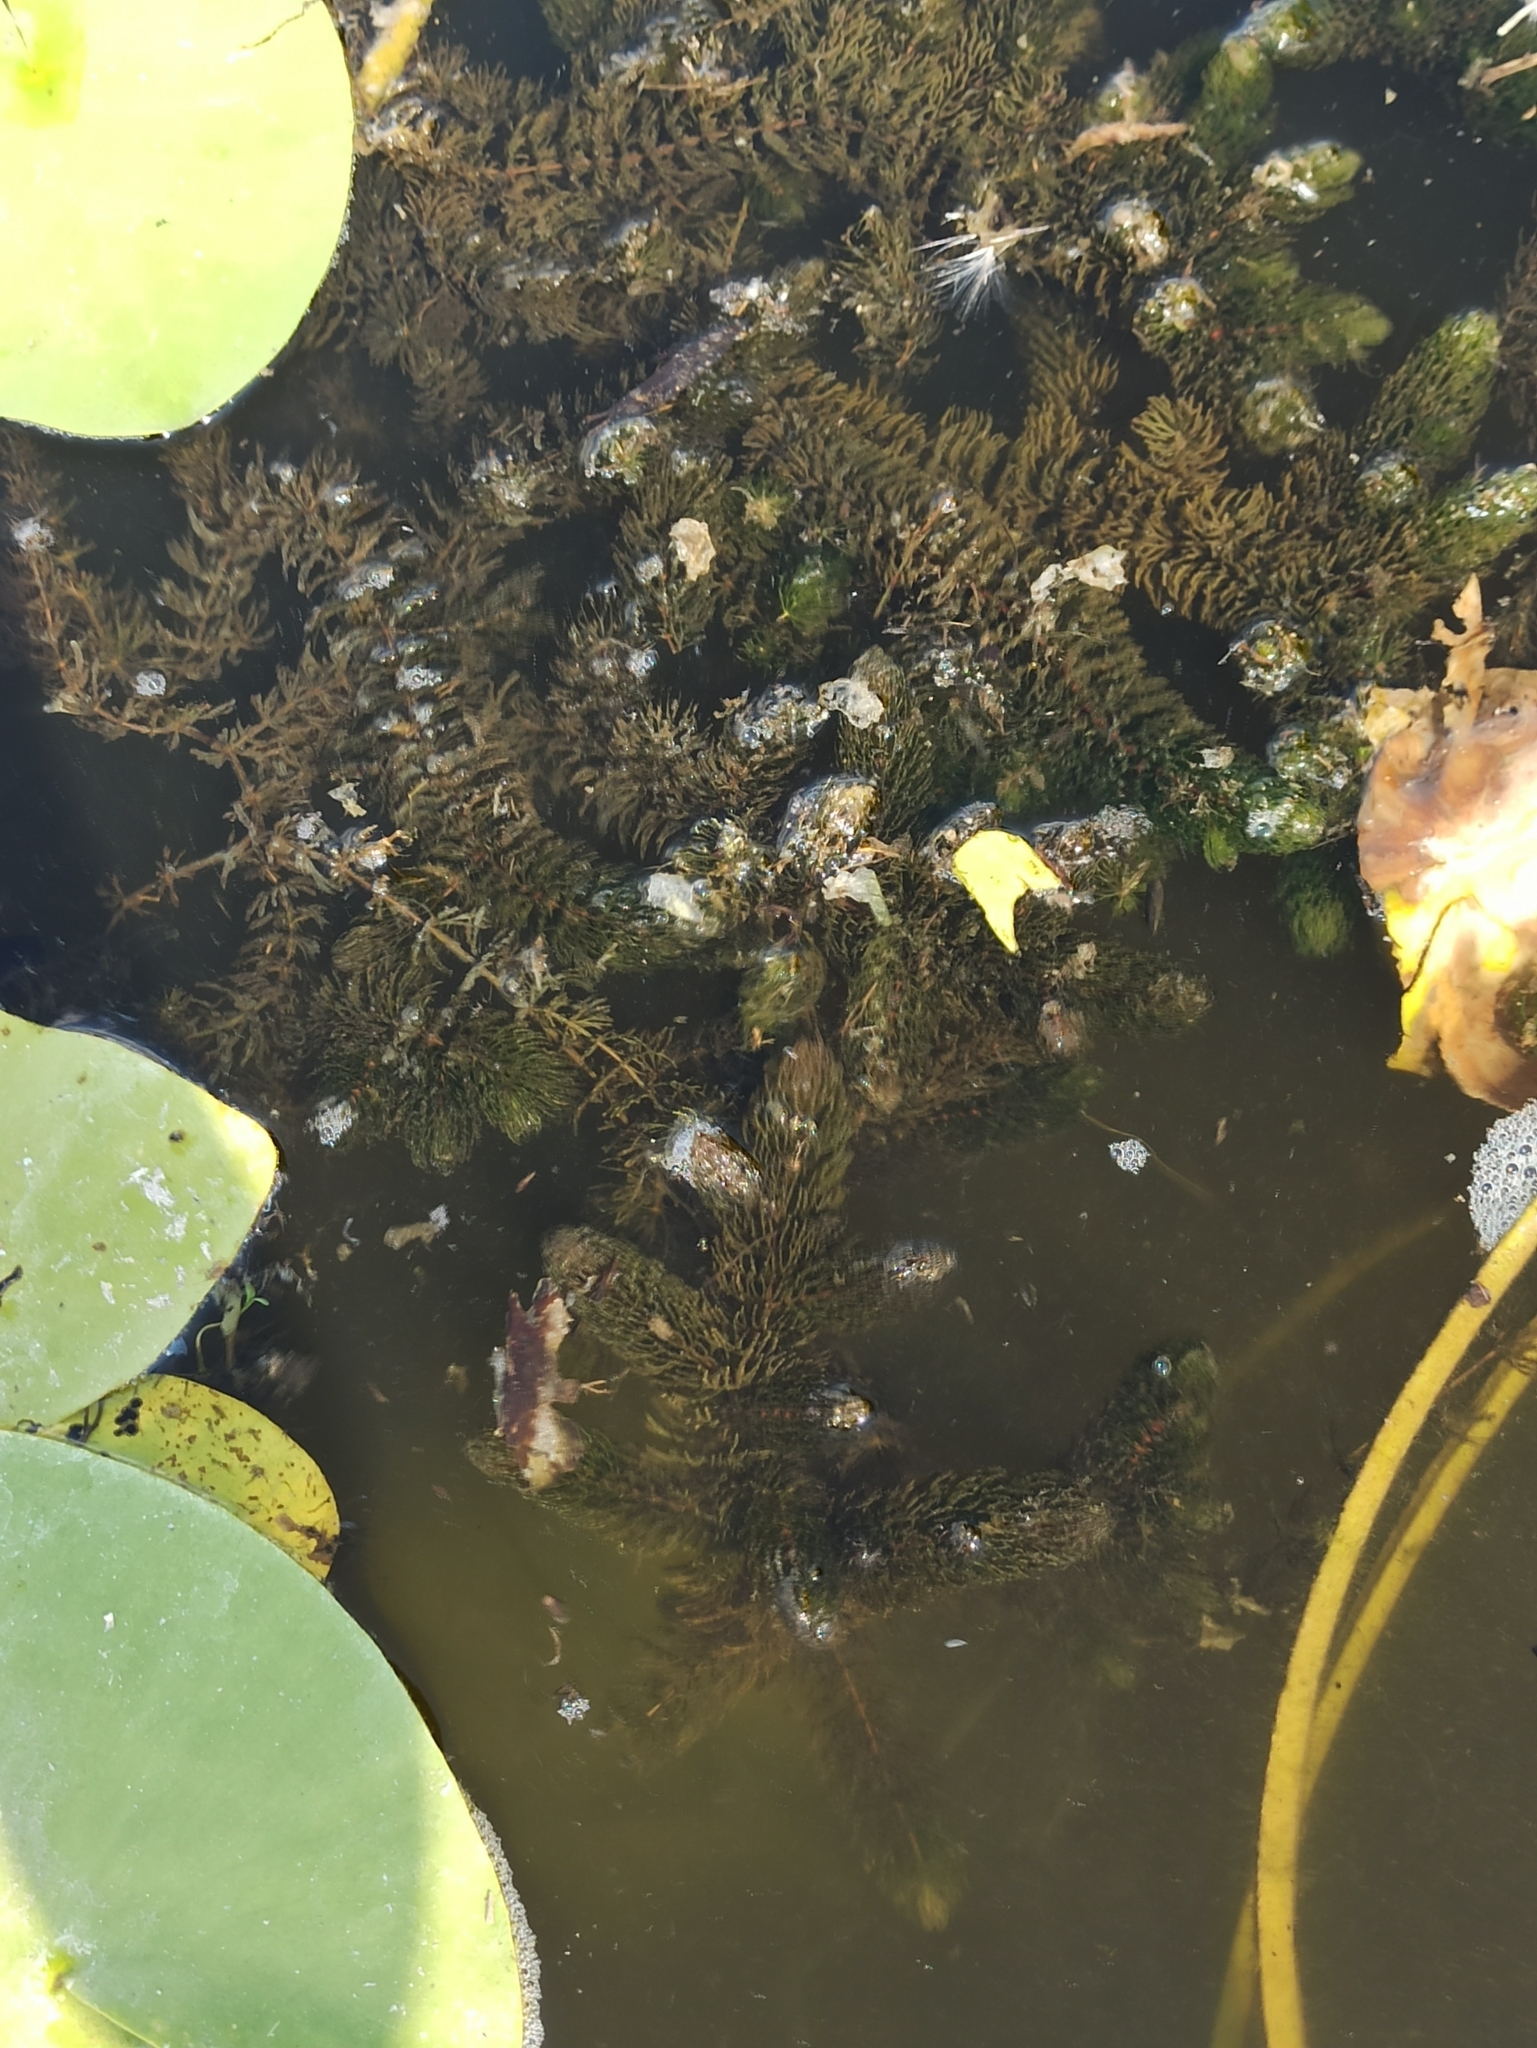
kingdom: Plantae
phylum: Tracheophyta
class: Magnoliopsida
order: Ceratophyllales
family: Ceratophyllaceae
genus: Ceratophyllum
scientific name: Ceratophyllum demersum
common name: Rigid hornwort
